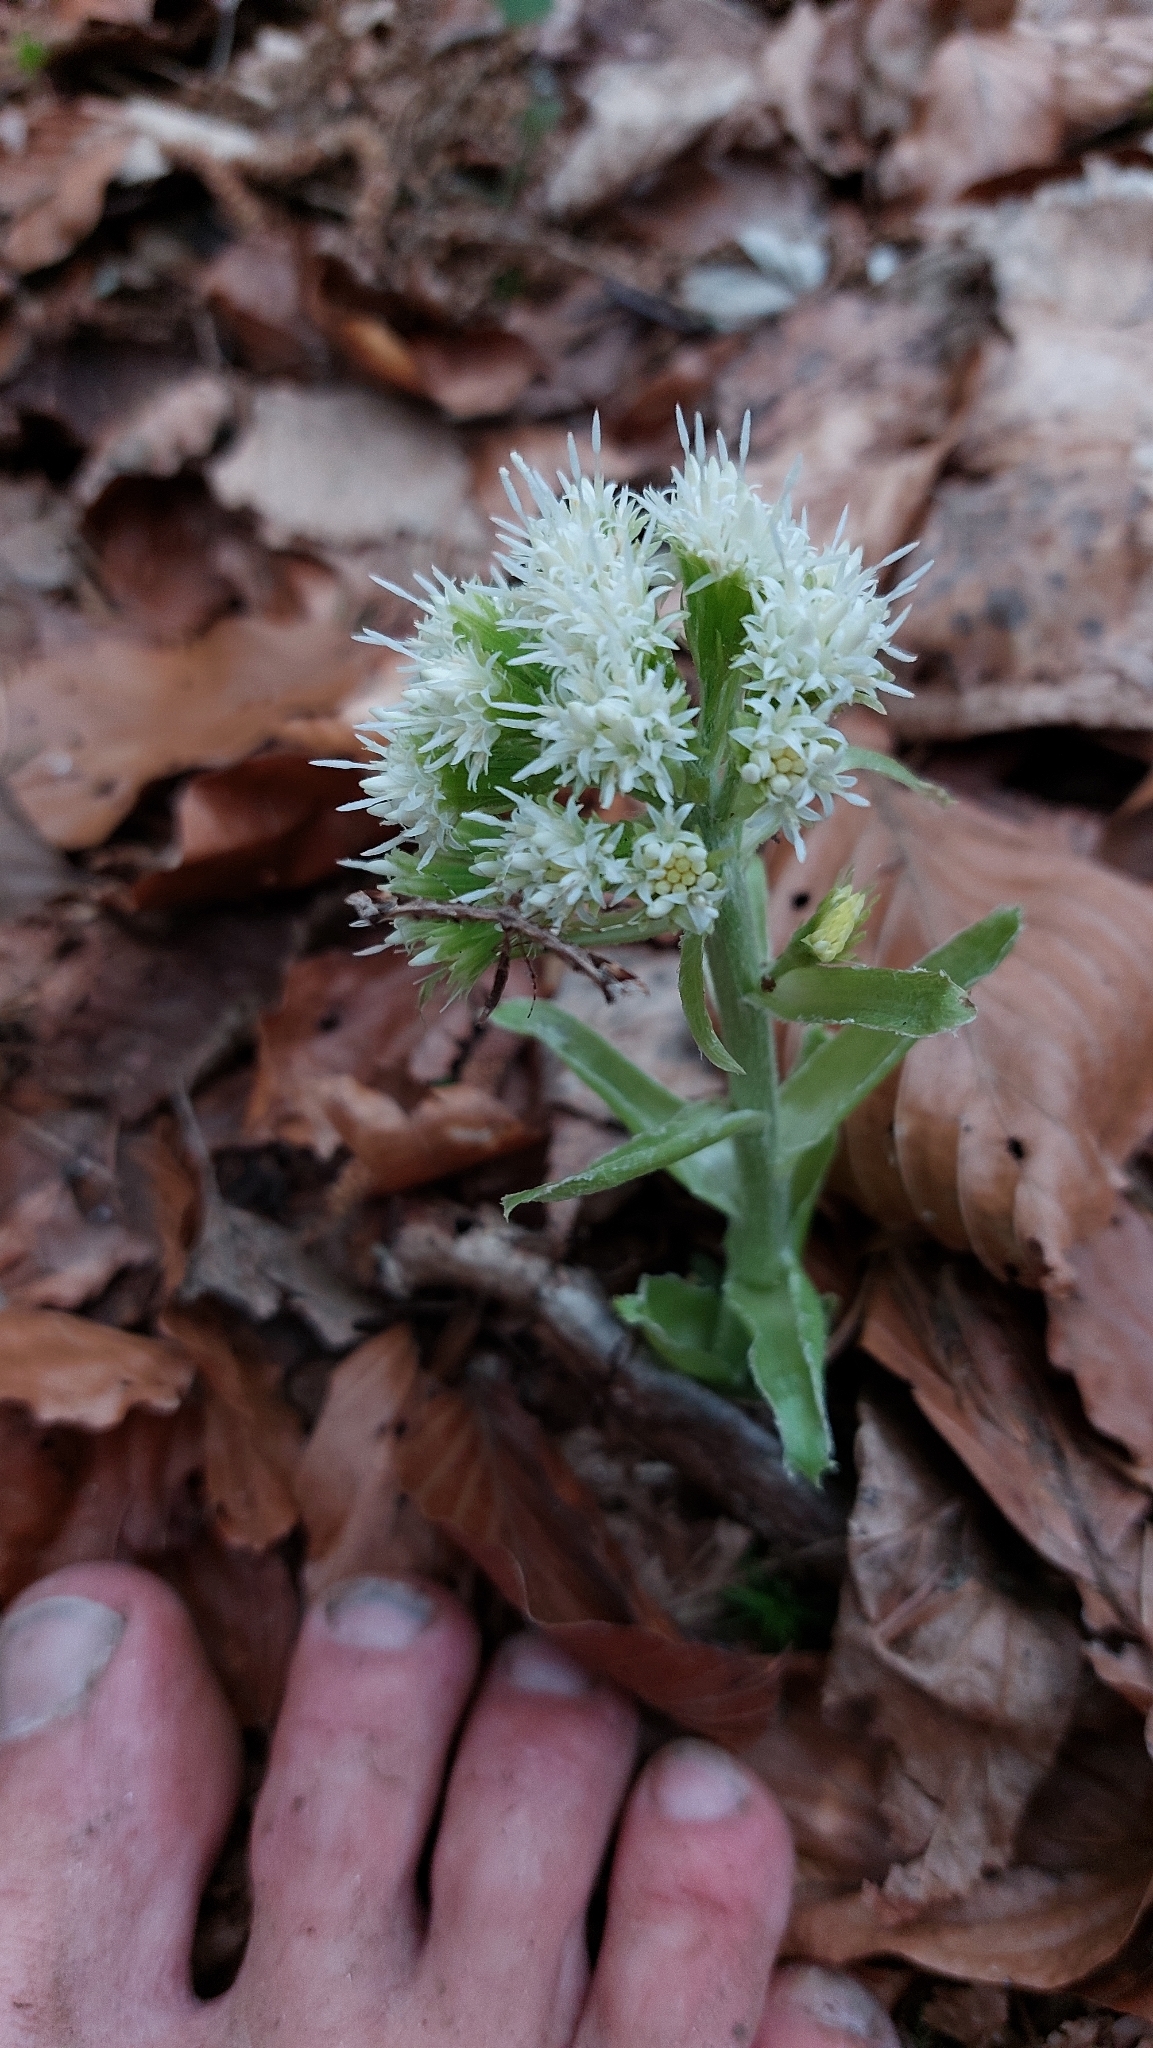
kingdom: Plantae
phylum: Tracheophyta
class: Magnoliopsida
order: Asterales
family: Asteraceae
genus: Petasites
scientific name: Petasites albus
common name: White butterbur
